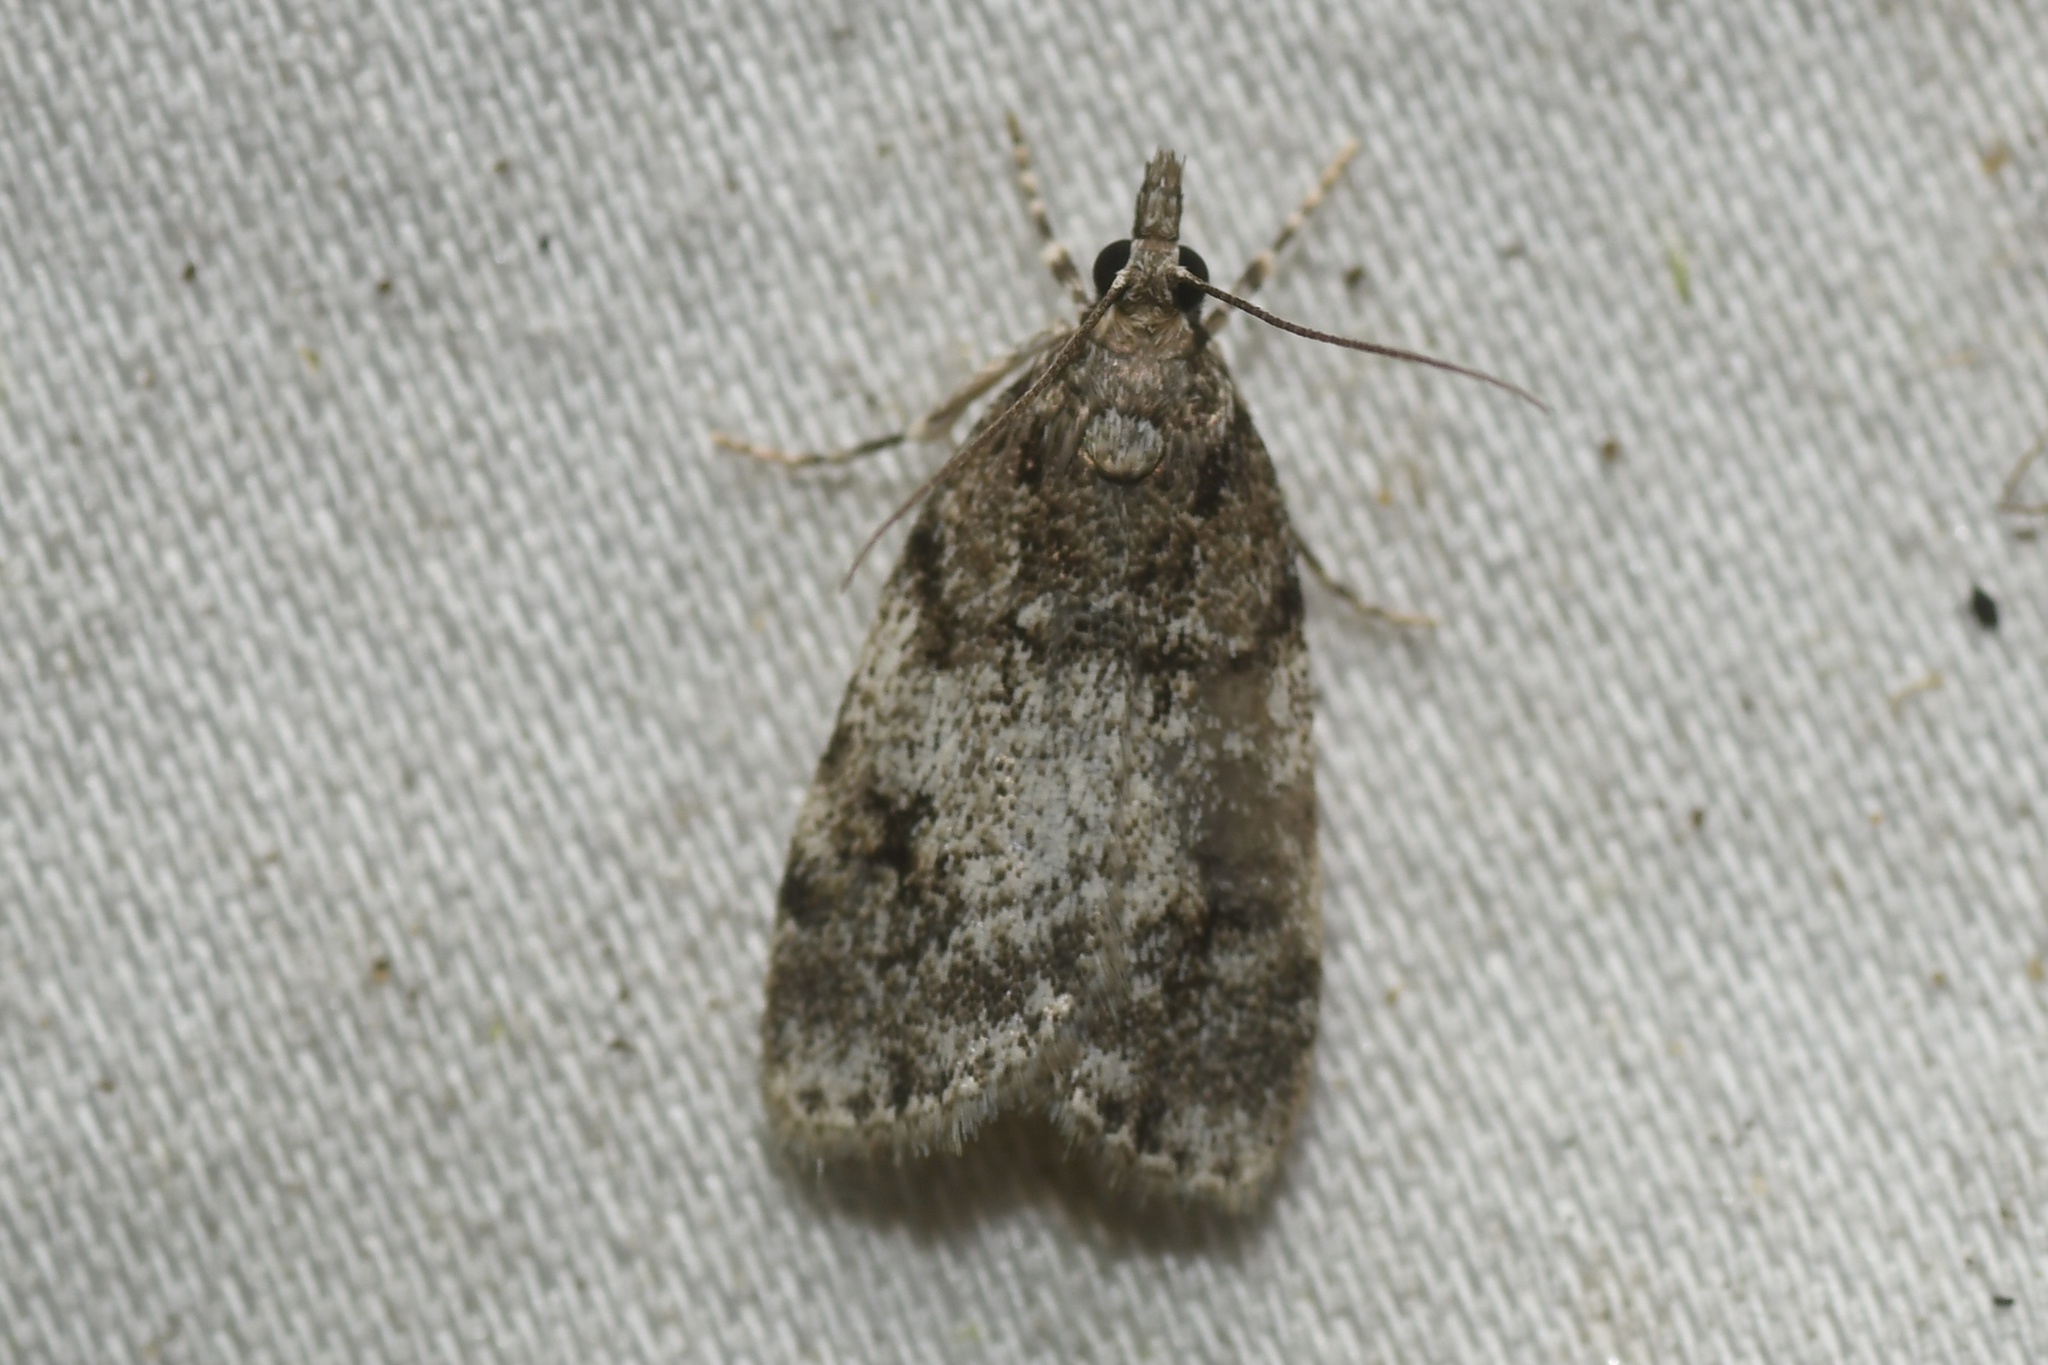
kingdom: Animalia
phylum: Arthropoda
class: Insecta
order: Lepidoptera
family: Crambidae
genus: Scoparia
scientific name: Scoparia cinereomedia
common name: Sooty scoparia moth
